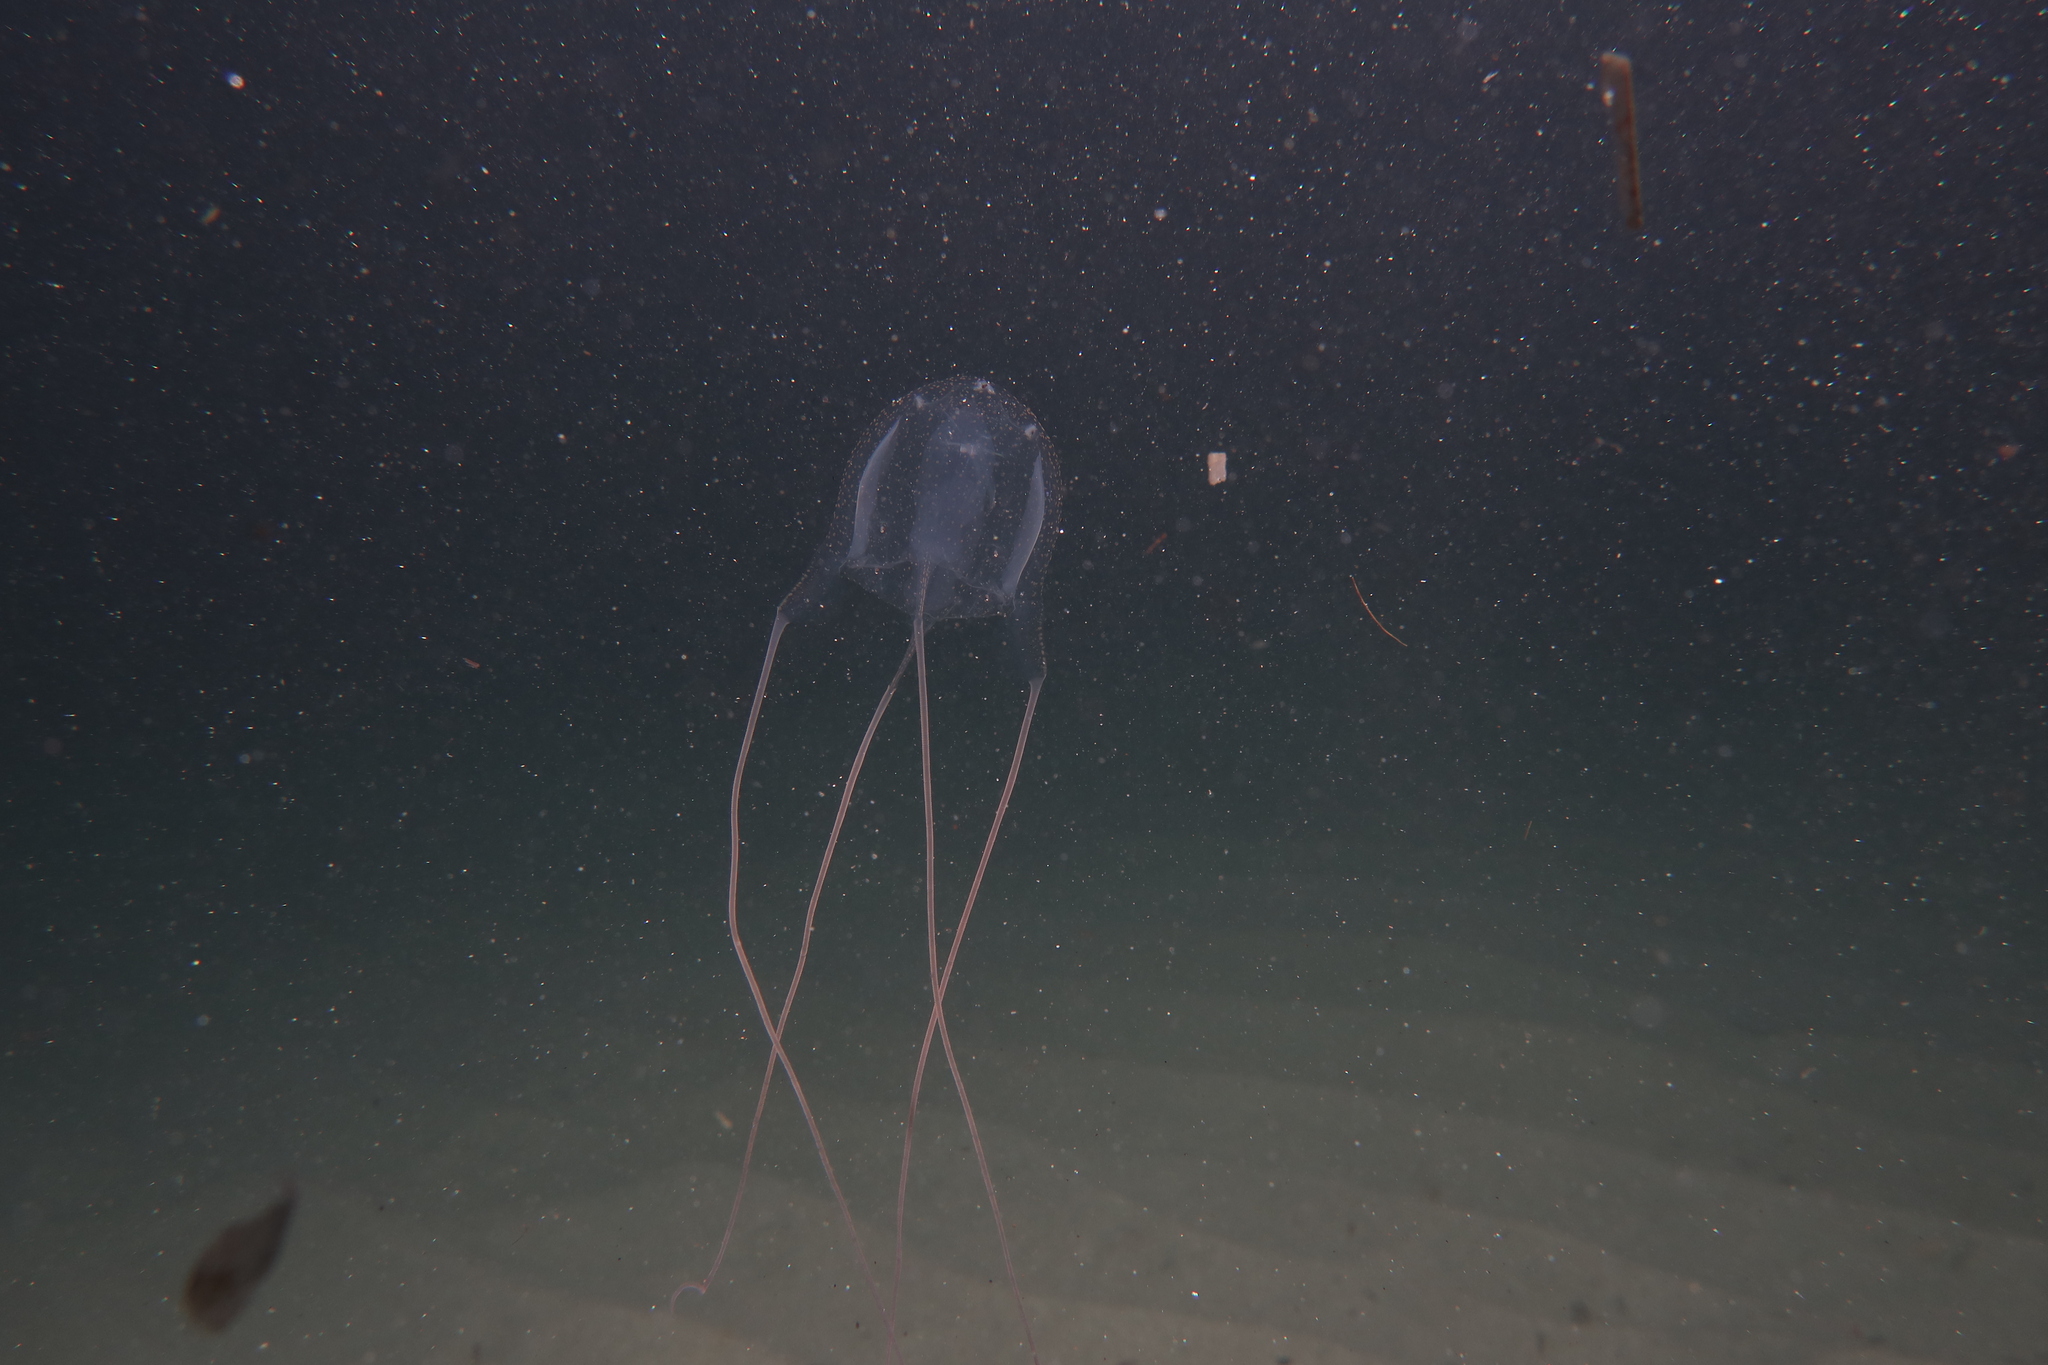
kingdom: Animalia
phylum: Cnidaria
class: Cubozoa
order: Carybdeida
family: Carybdeidae
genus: Carybdea
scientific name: Carybdea marsupialis
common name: Sea wasp
